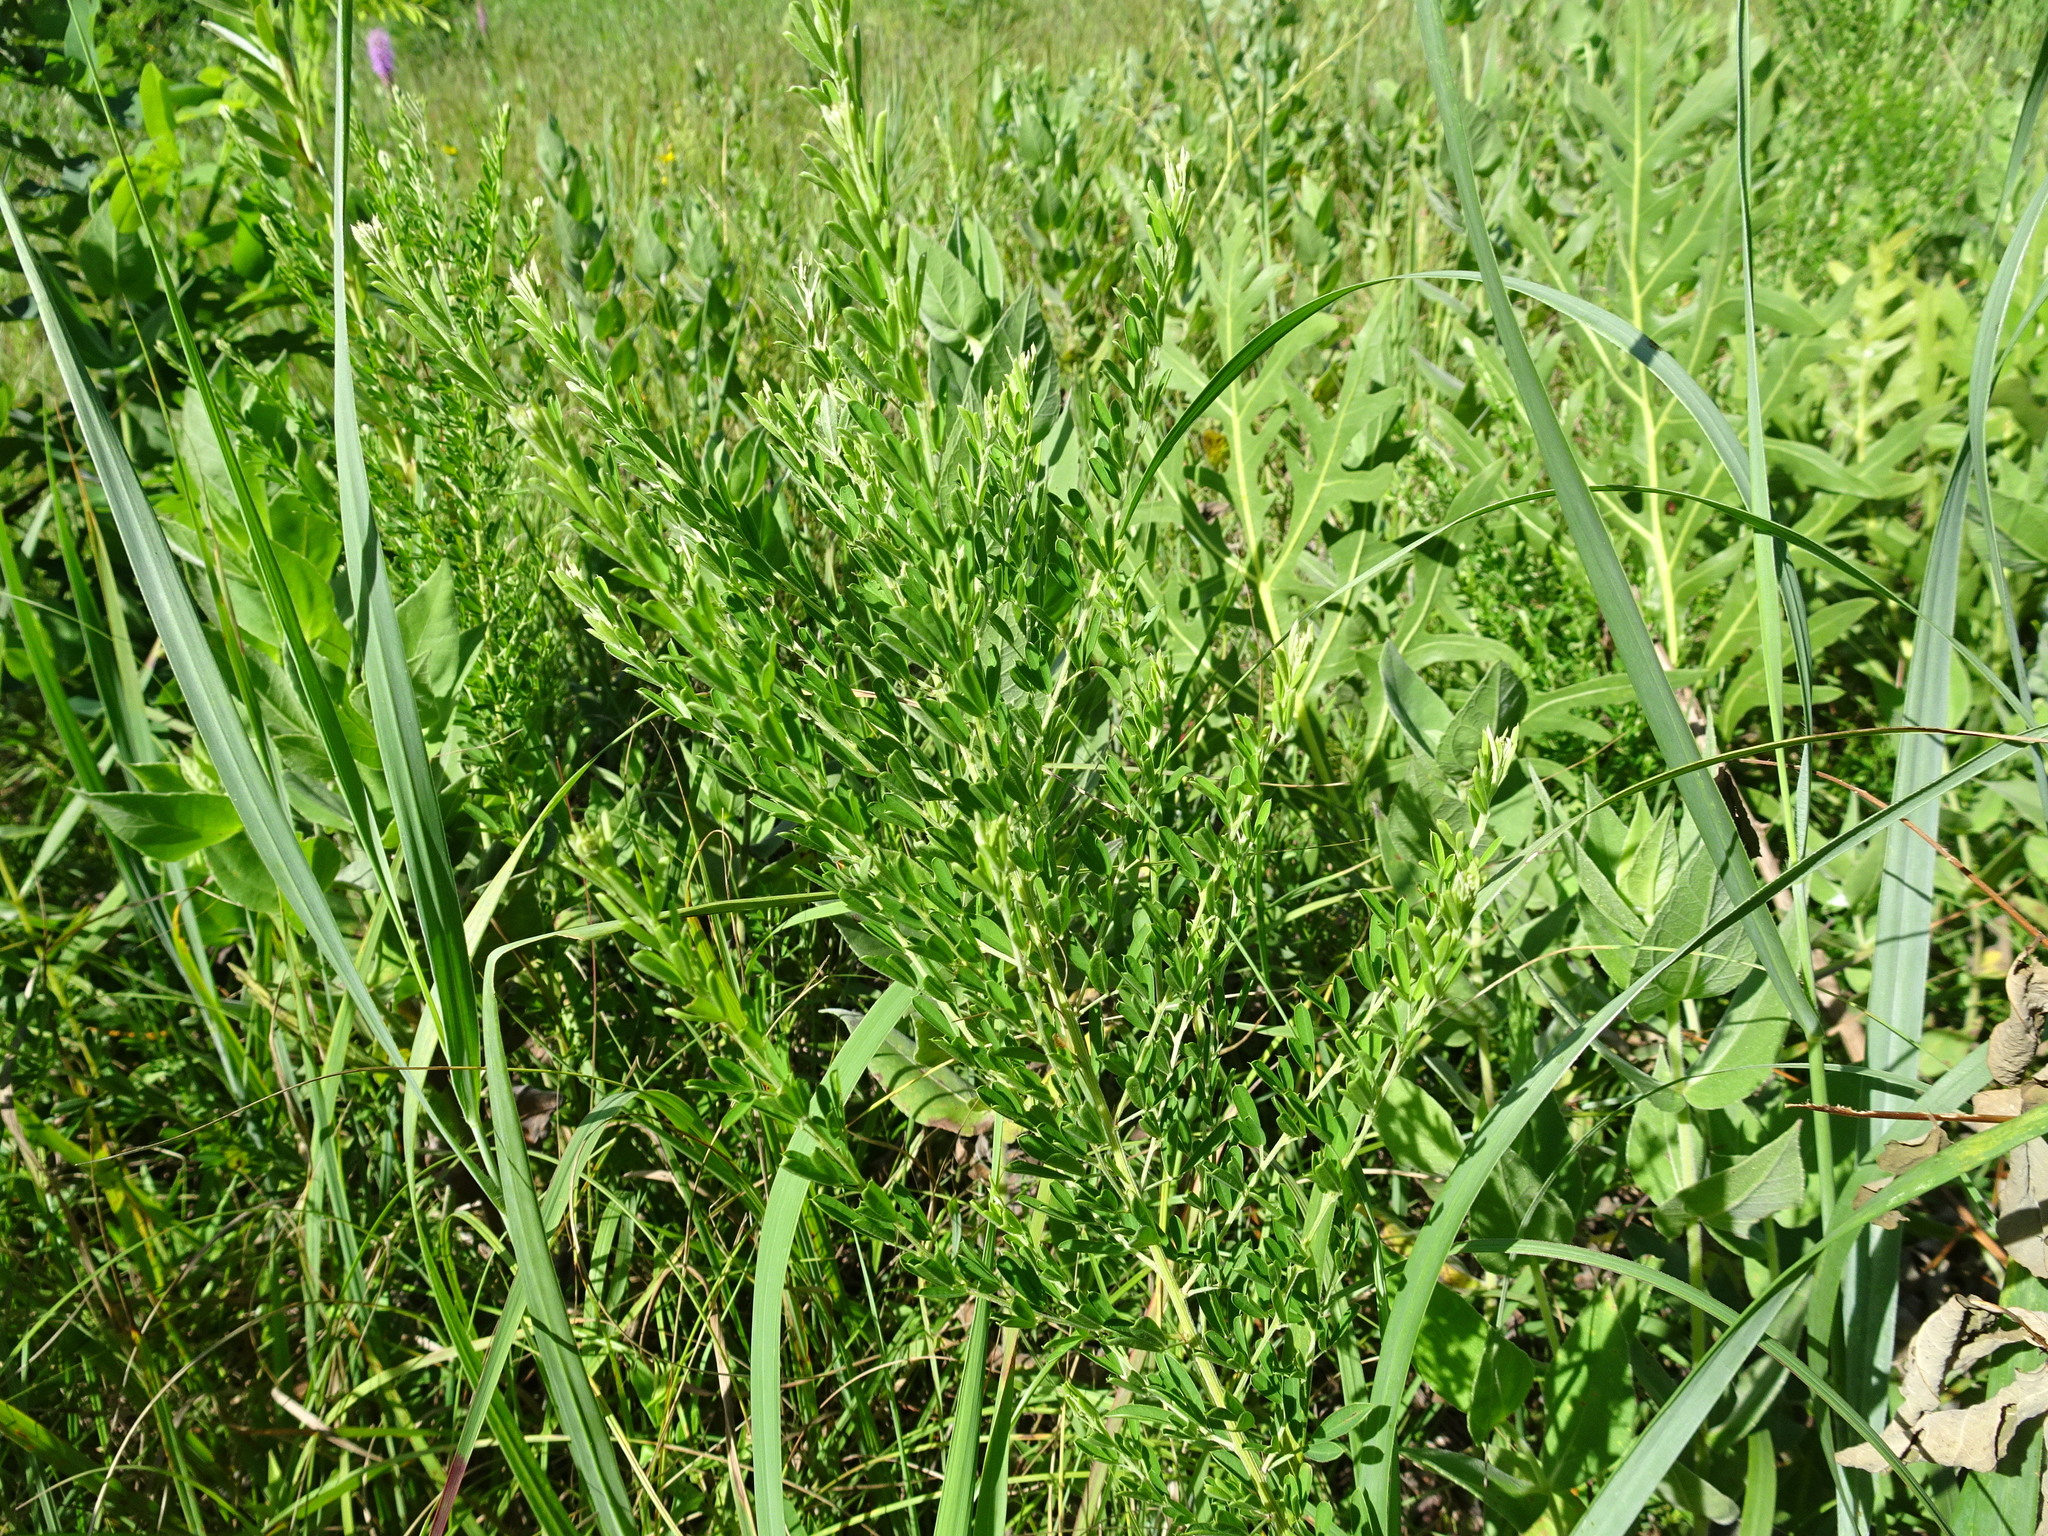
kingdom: Plantae
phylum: Tracheophyta
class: Magnoliopsida
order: Fabales
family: Fabaceae
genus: Lespedeza
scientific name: Lespedeza cuneata
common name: Chinese bush-clover
